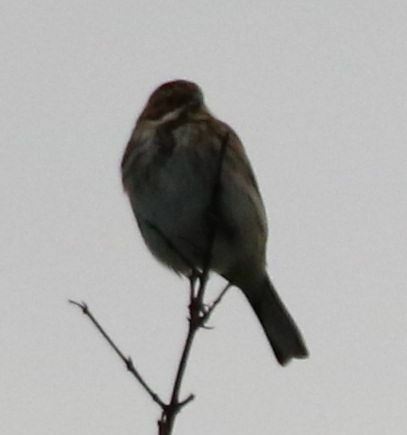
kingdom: Animalia
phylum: Chordata
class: Aves
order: Passeriformes
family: Emberizidae
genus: Emberiza
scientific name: Emberiza schoeniclus
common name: Reed bunting
